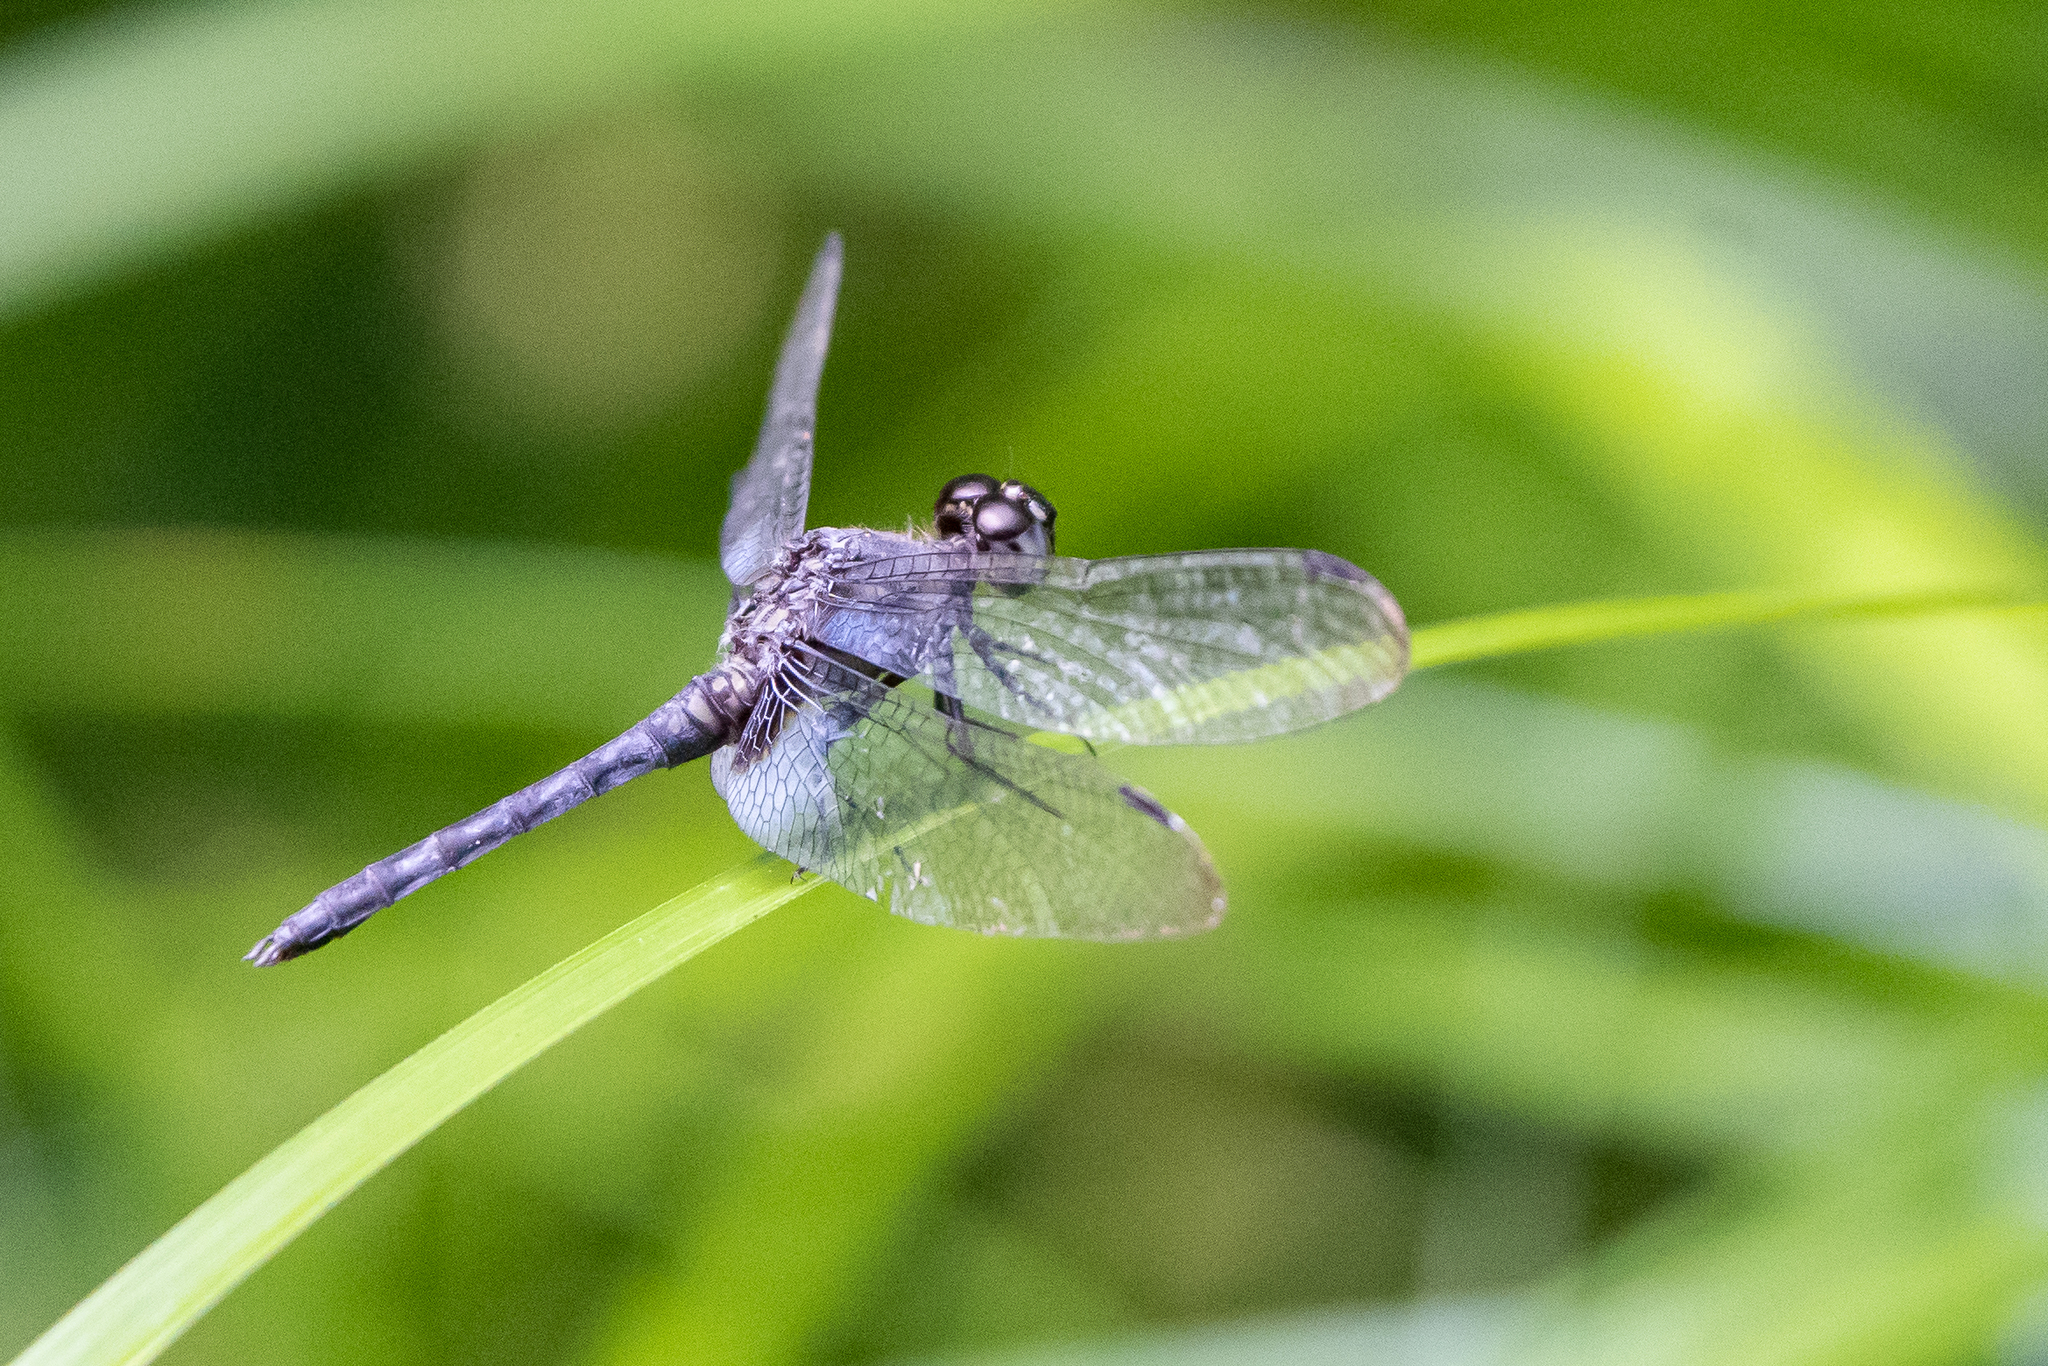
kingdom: Animalia
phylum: Arthropoda
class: Insecta
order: Odonata
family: Libellulidae
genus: Erythrodiplax
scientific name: Erythrodiplax kimminsi
